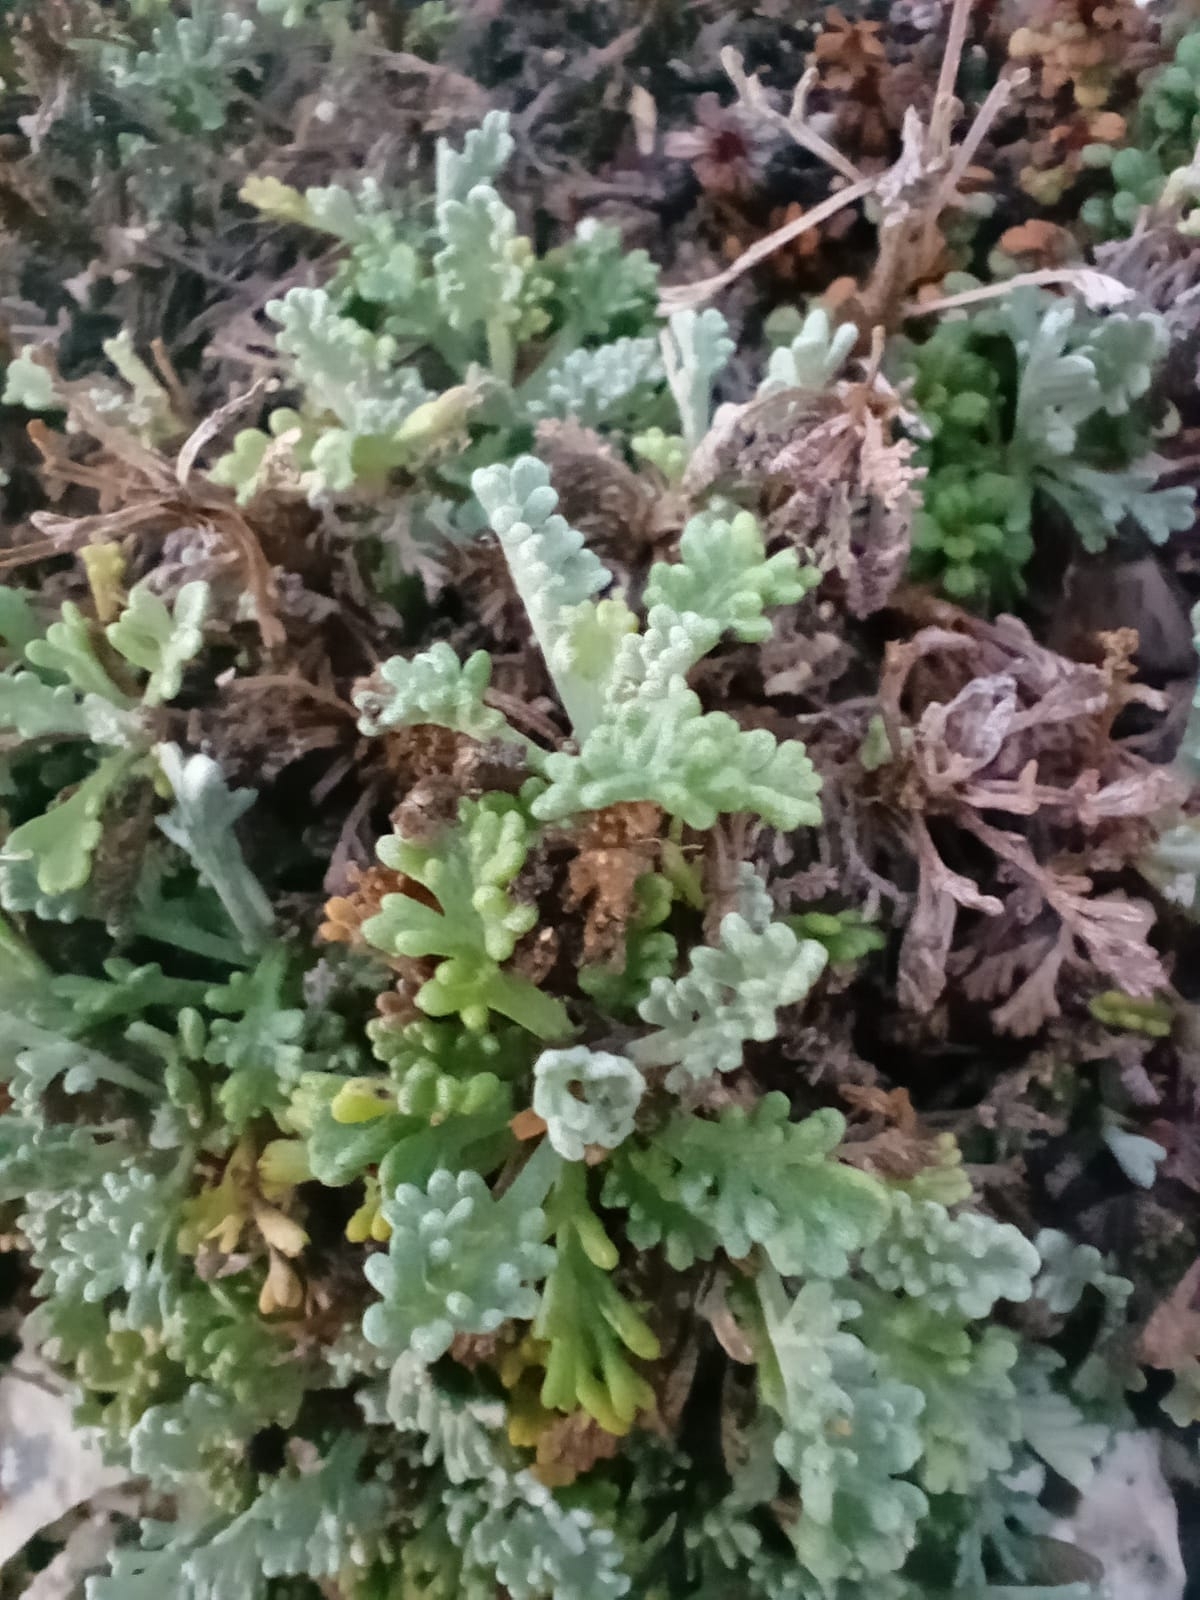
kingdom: Plantae
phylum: Tracheophyta
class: Magnoliopsida
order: Asterales
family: Asteraceae
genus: Artemisia
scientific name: Artemisia caerulescens
